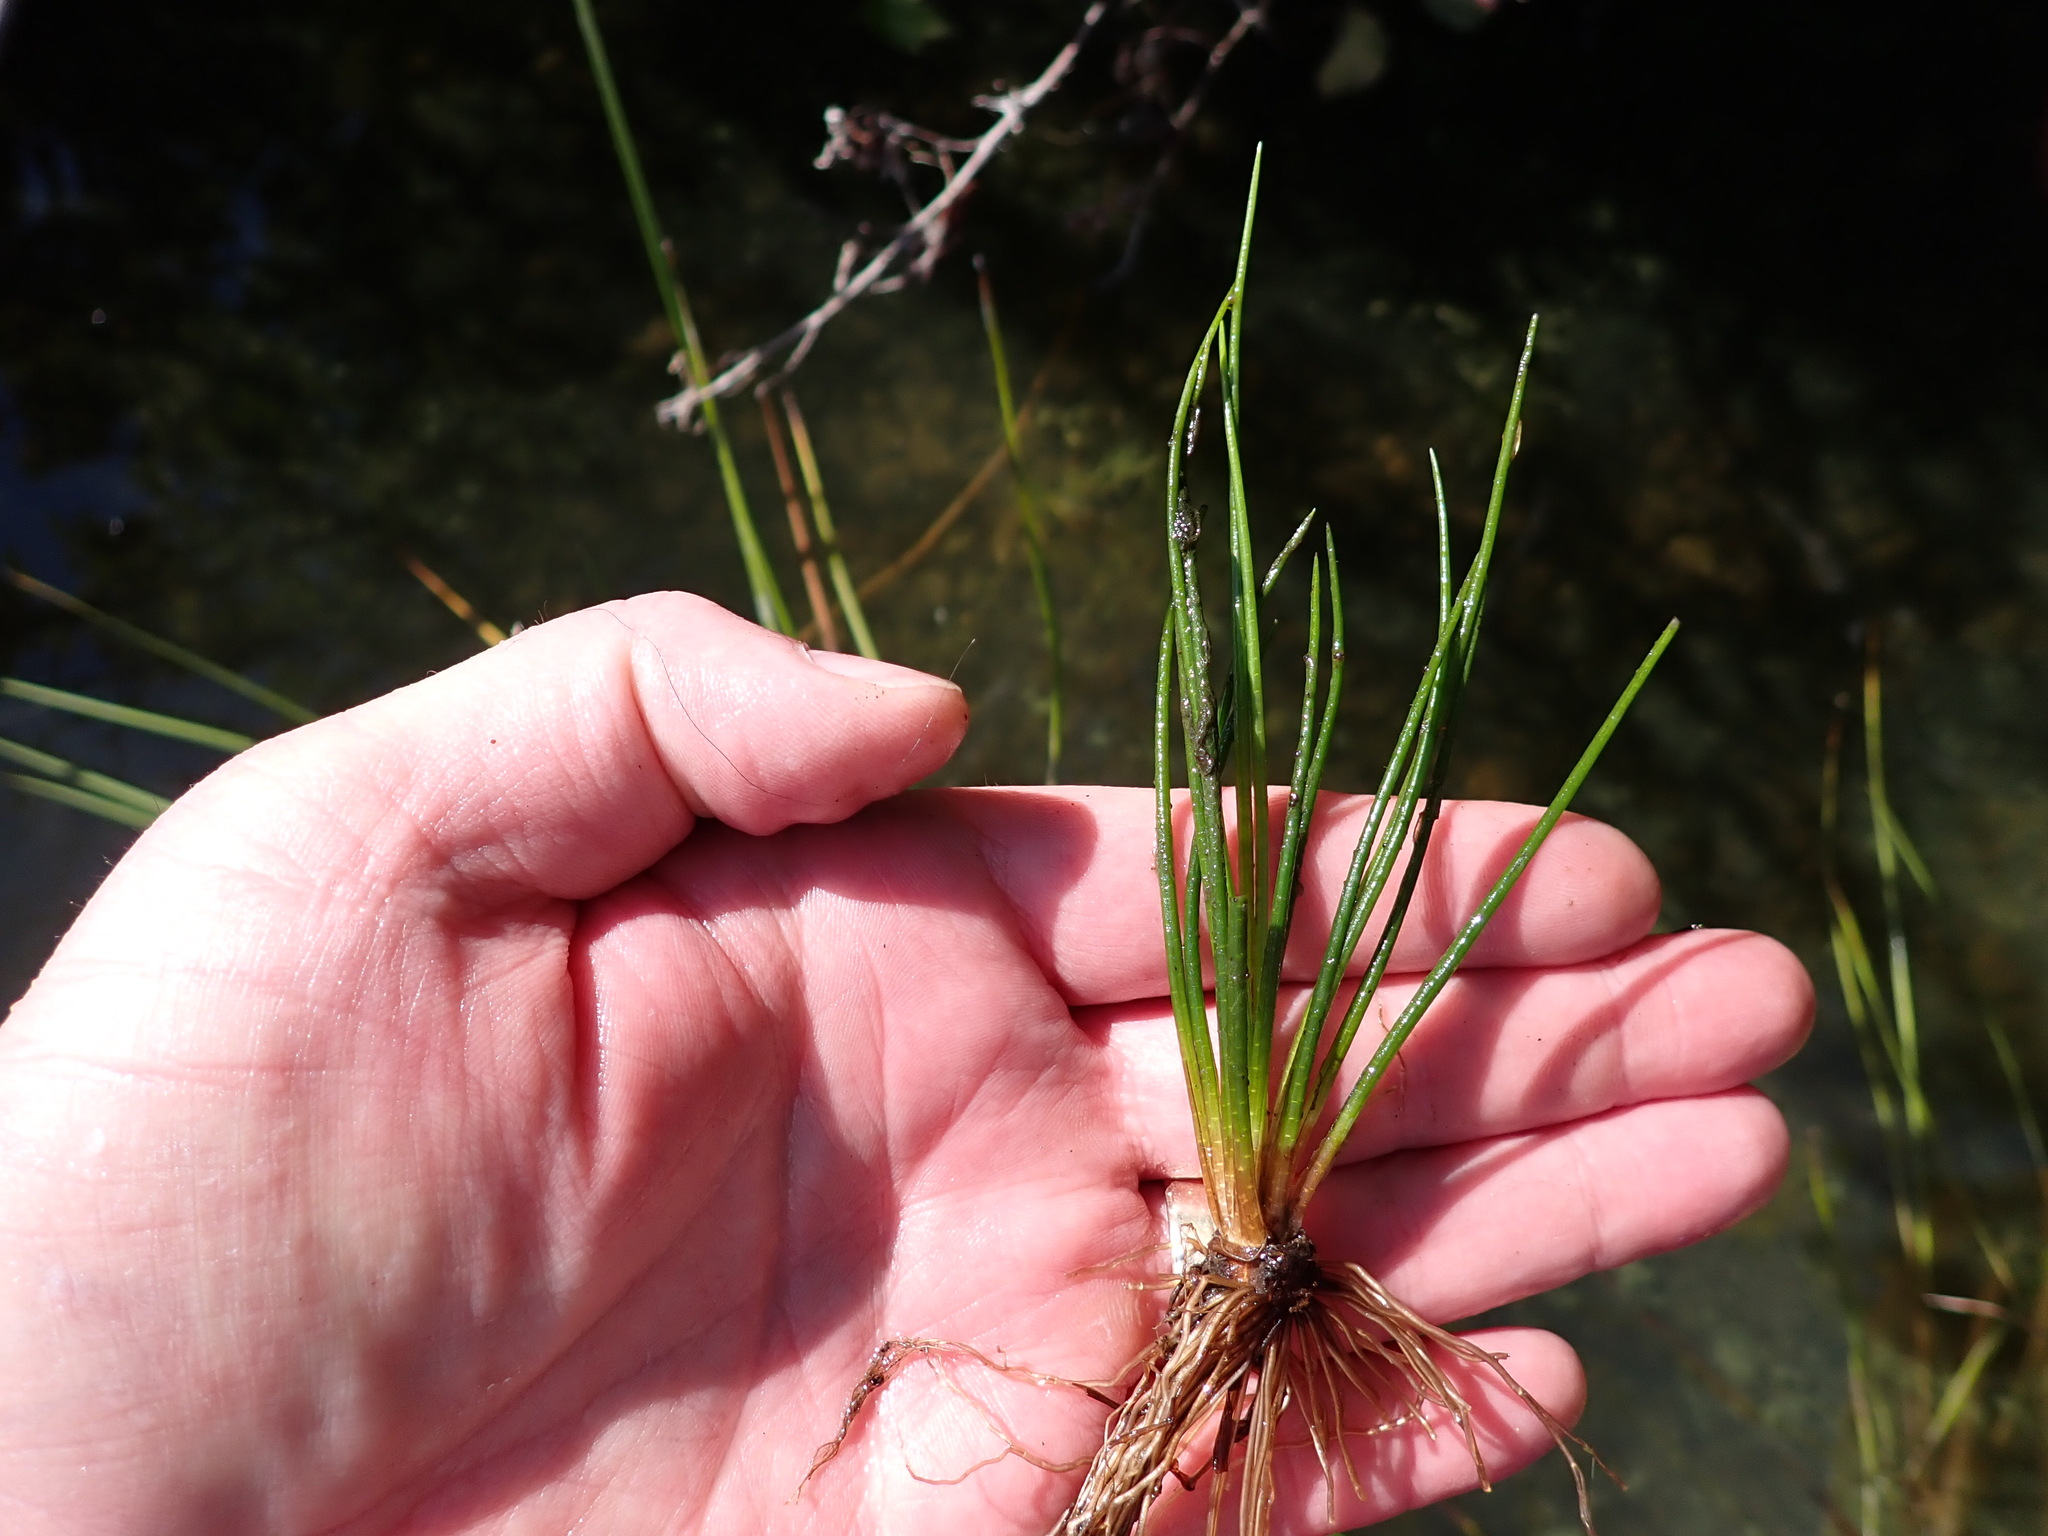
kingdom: Plantae
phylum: Tracheophyta
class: Lycopodiopsida
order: Isoetales
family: Isoetaceae
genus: Isoetes
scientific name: Isoetes occidentalis
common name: Western quillwort
